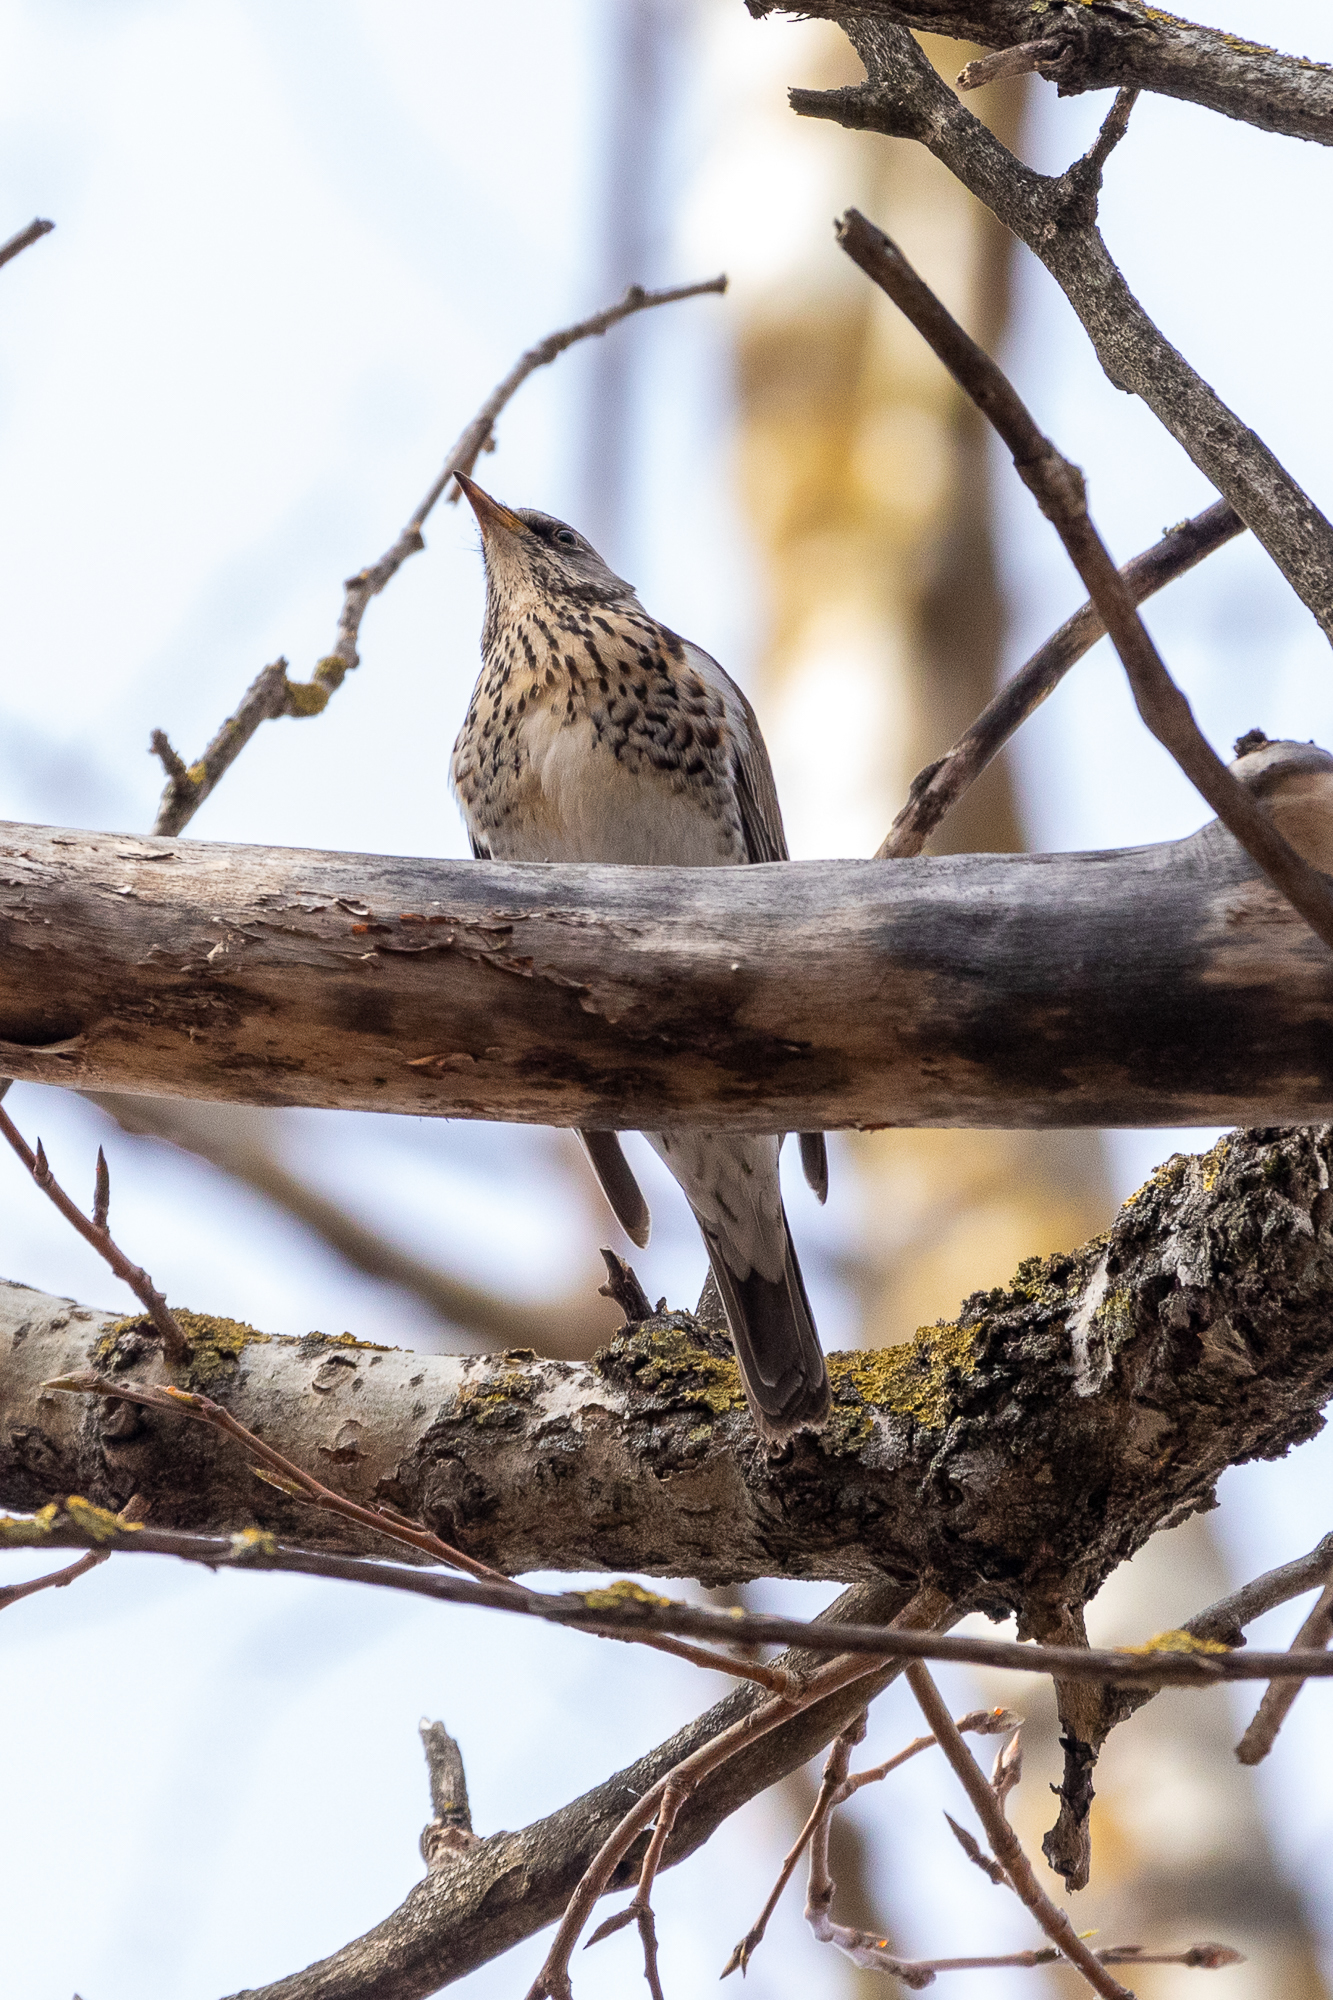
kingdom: Animalia
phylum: Chordata
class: Aves
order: Passeriformes
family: Turdidae
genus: Turdus
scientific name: Turdus pilaris
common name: Fieldfare
